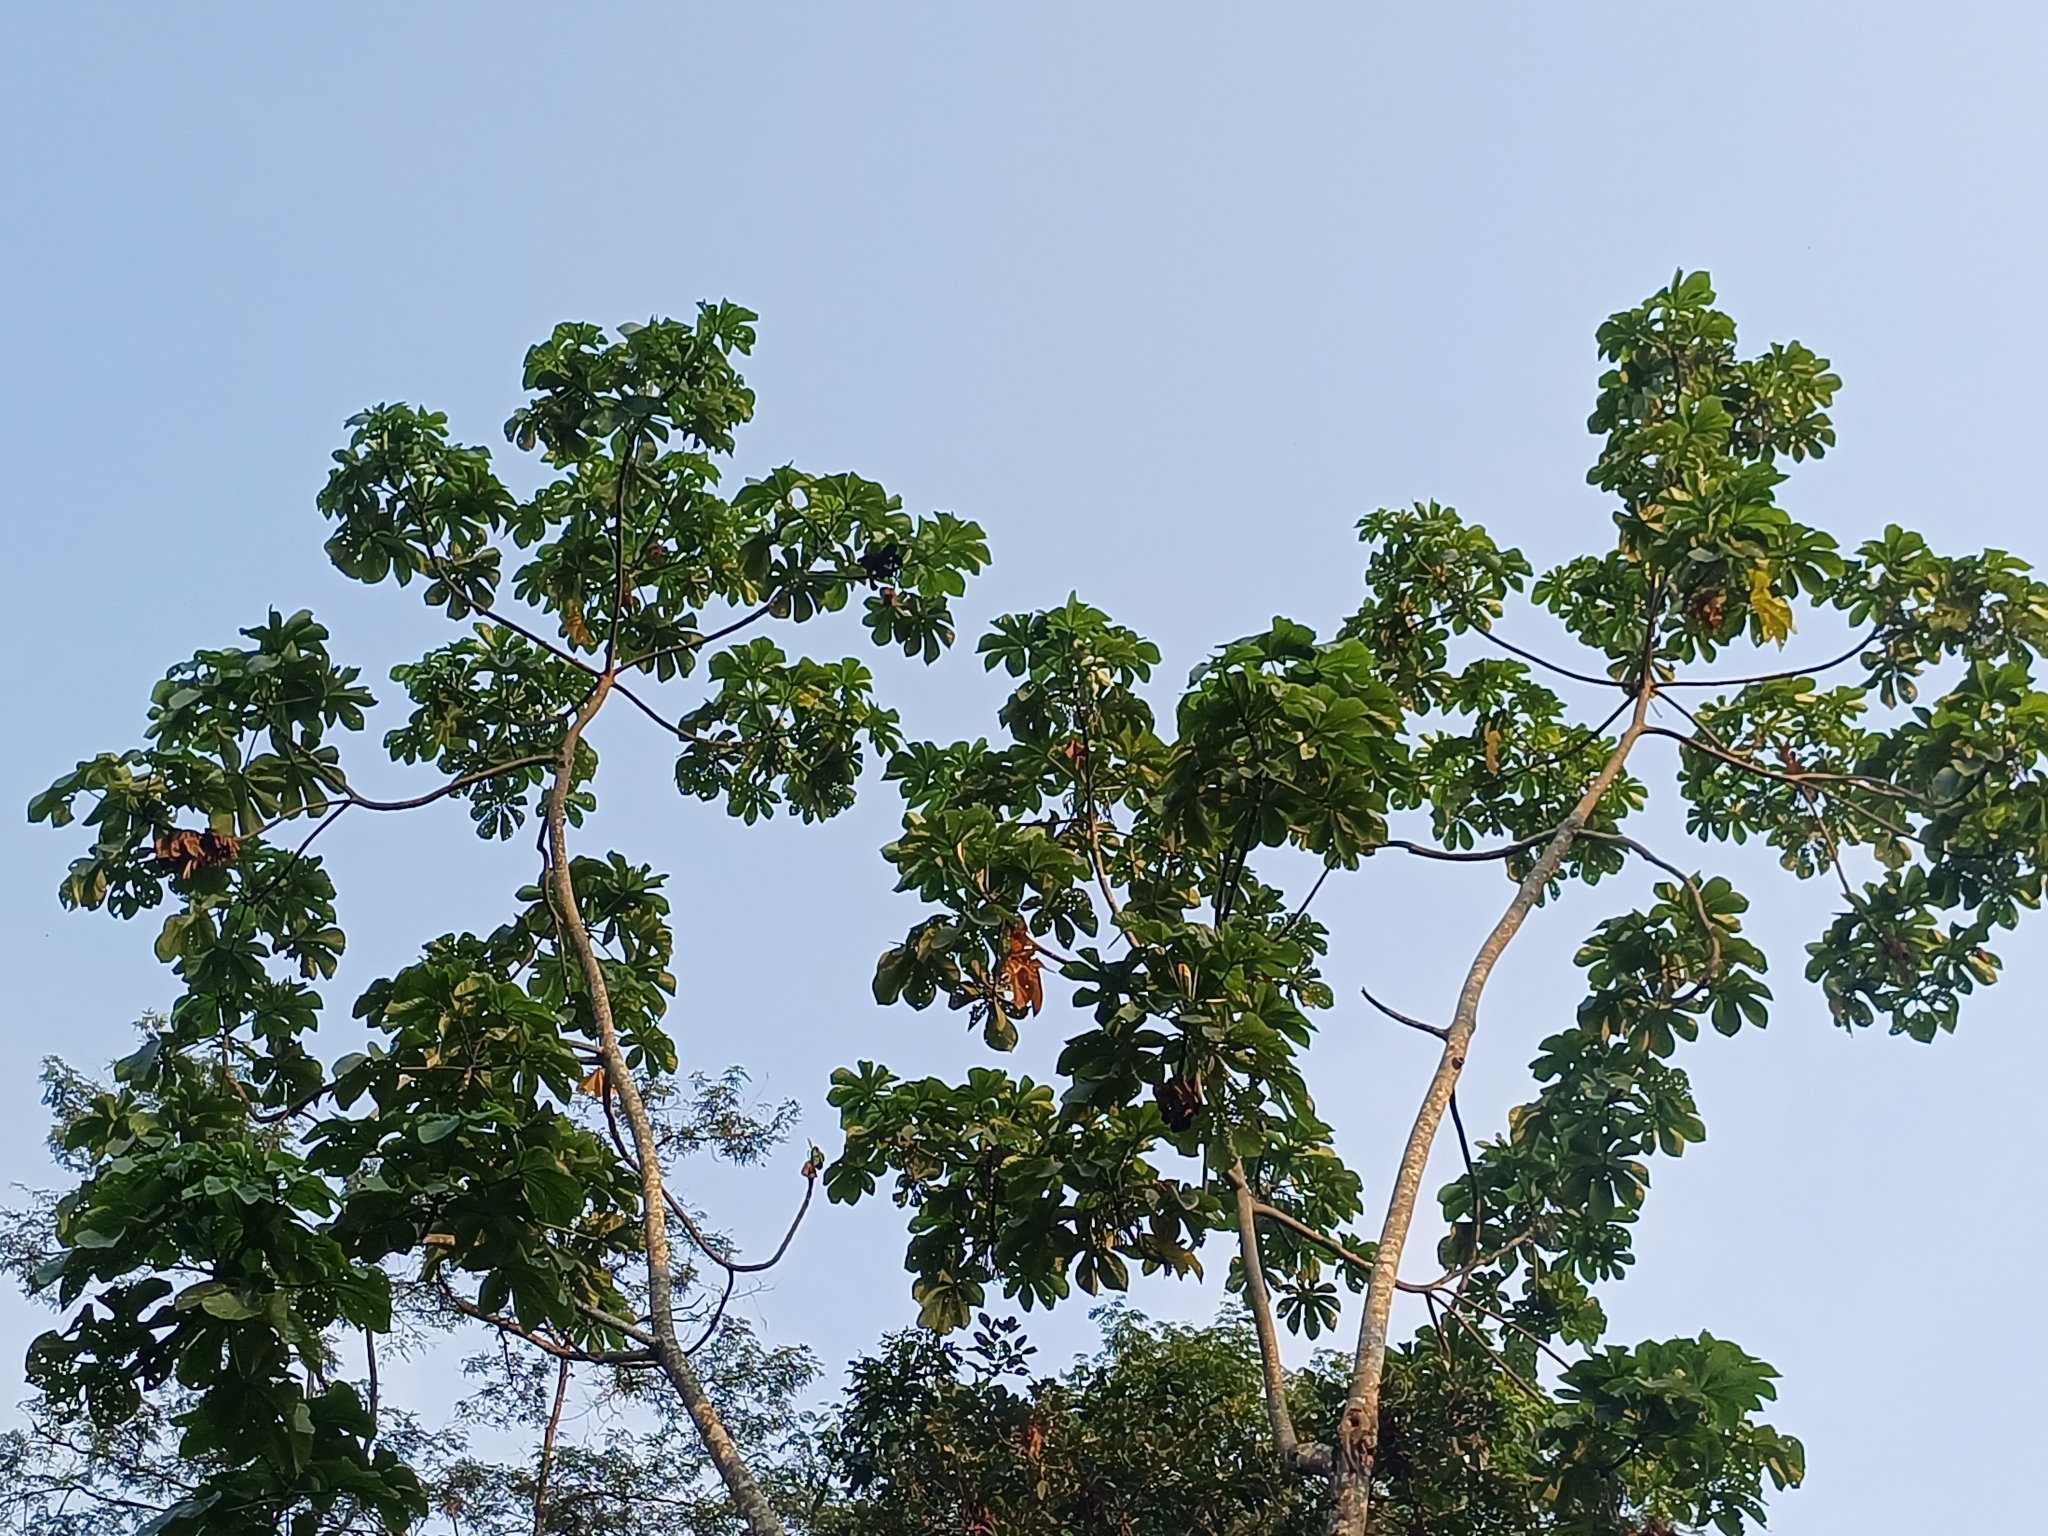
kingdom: Plantae
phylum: Tracheophyta
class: Magnoliopsida
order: Rosales
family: Urticaceae
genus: Cecropia
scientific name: Cecropia membranacea
